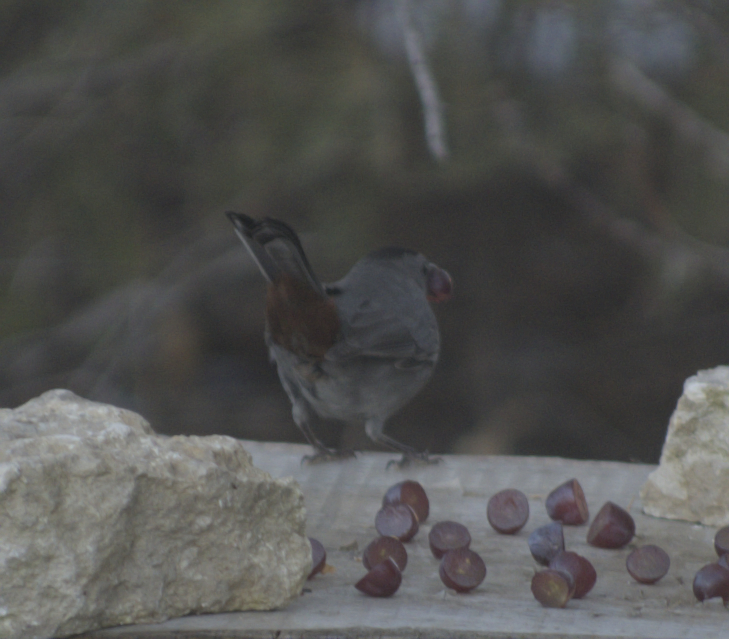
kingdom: Animalia
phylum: Chordata
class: Aves
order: Passeriformes
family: Mimidae
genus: Dumetella
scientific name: Dumetella carolinensis
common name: Gray catbird
